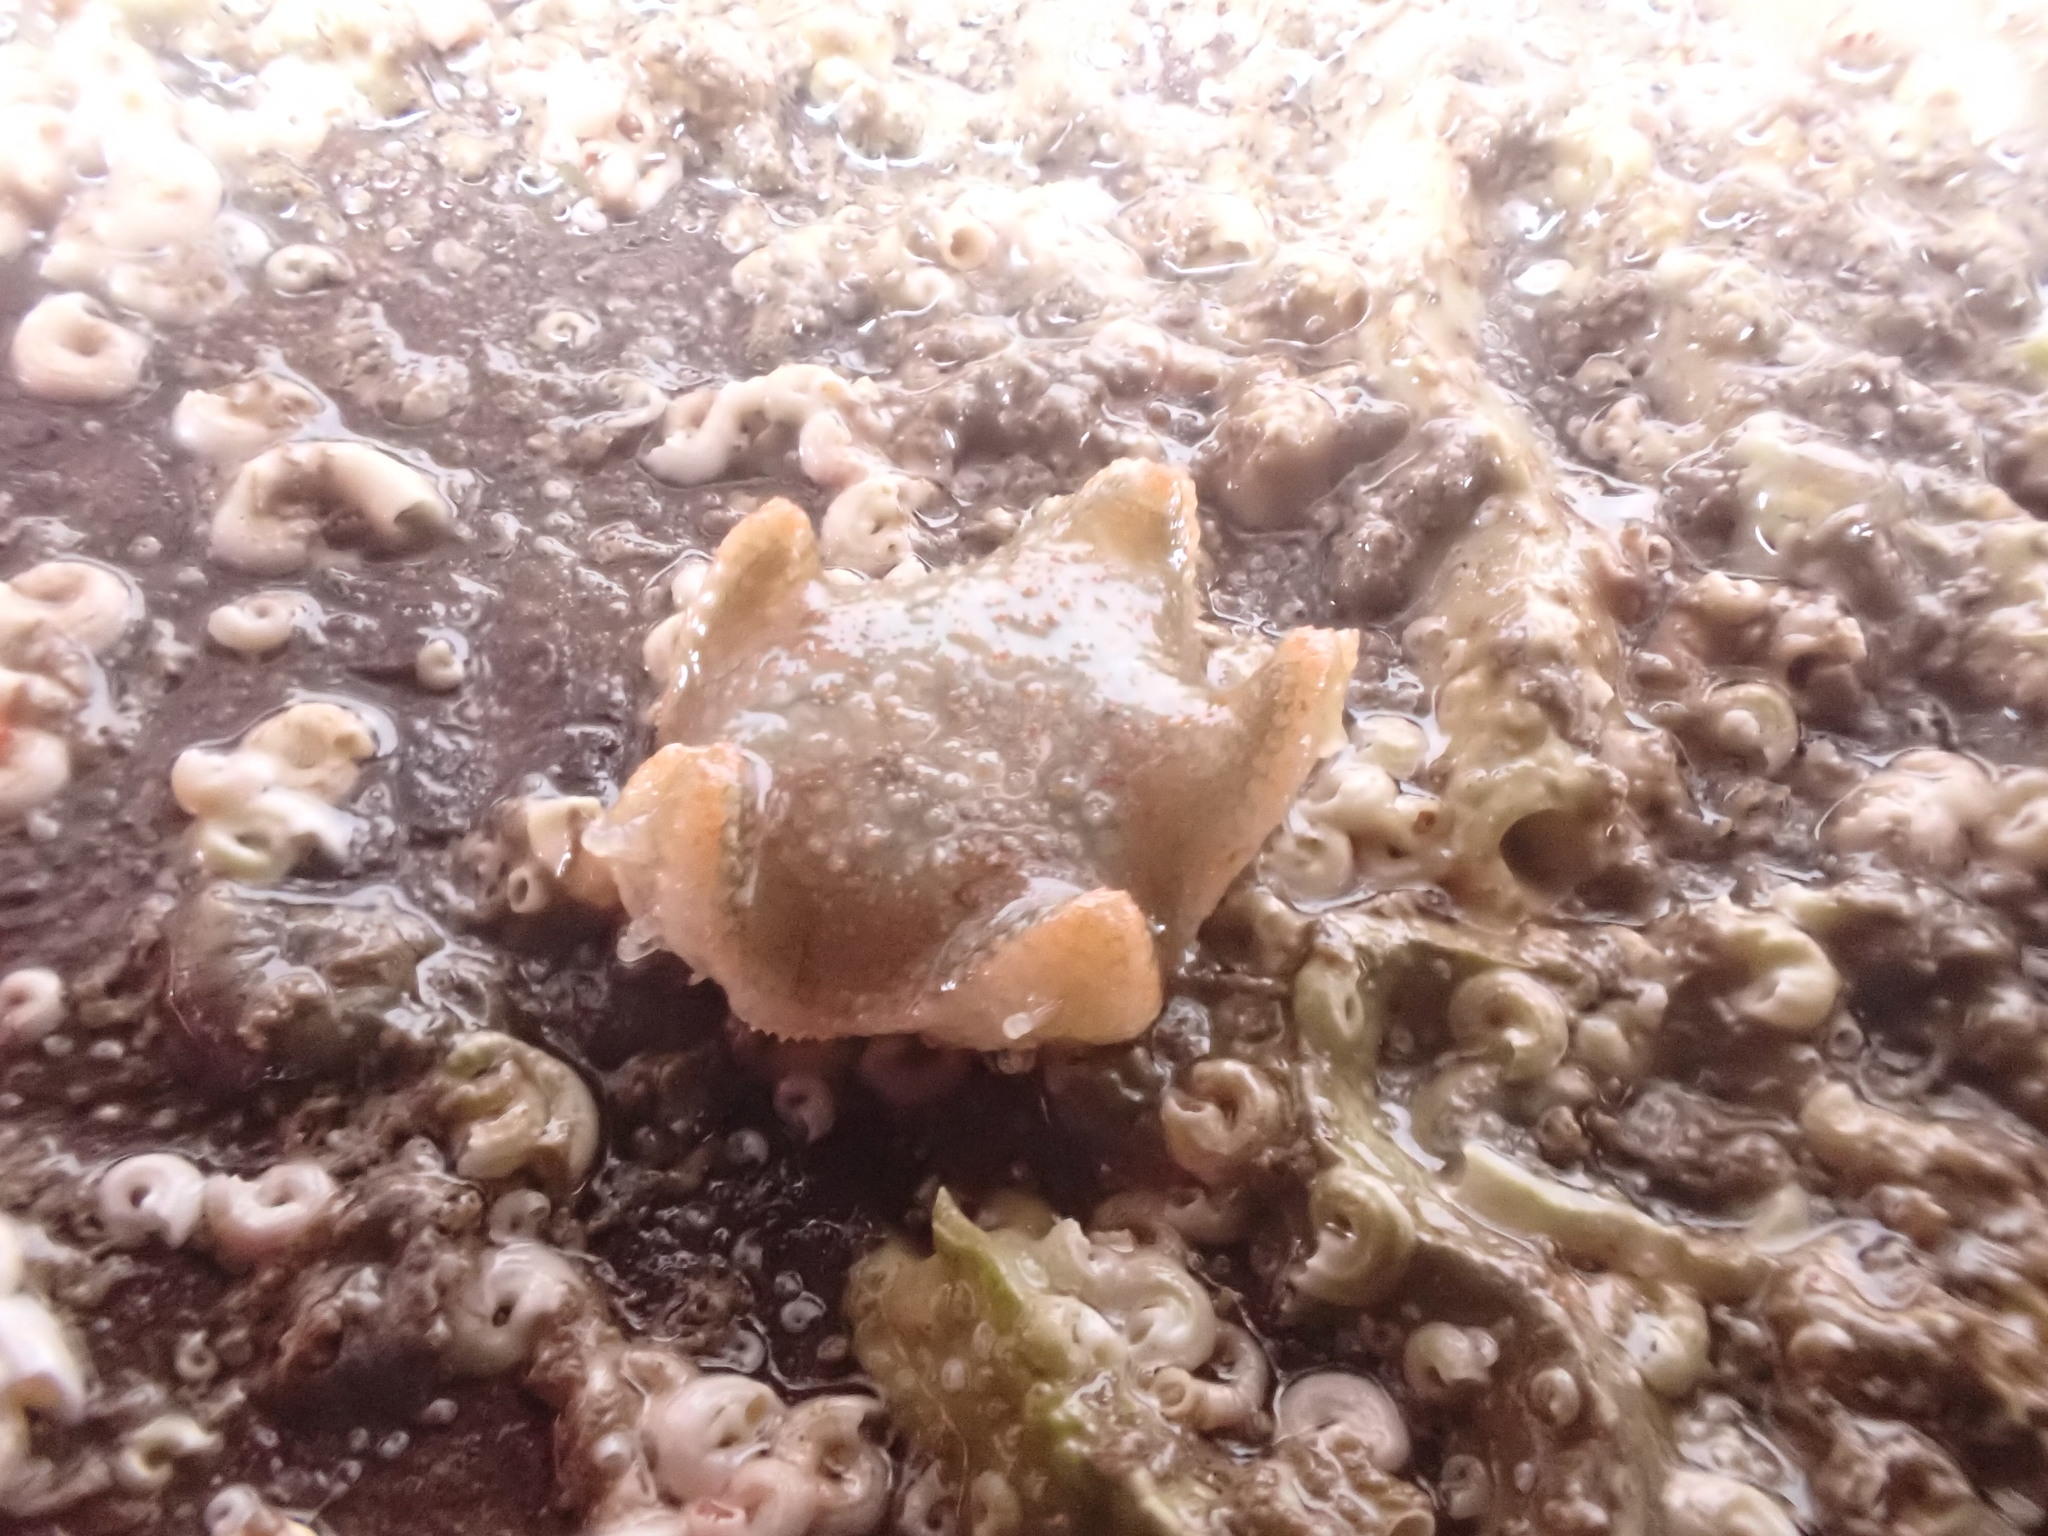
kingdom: Animalia
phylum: Echinodermata
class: Asteroidea
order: Valvatida
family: Asterinidae
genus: Asterina
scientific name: Asterina gibbosa
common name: Cushion star
